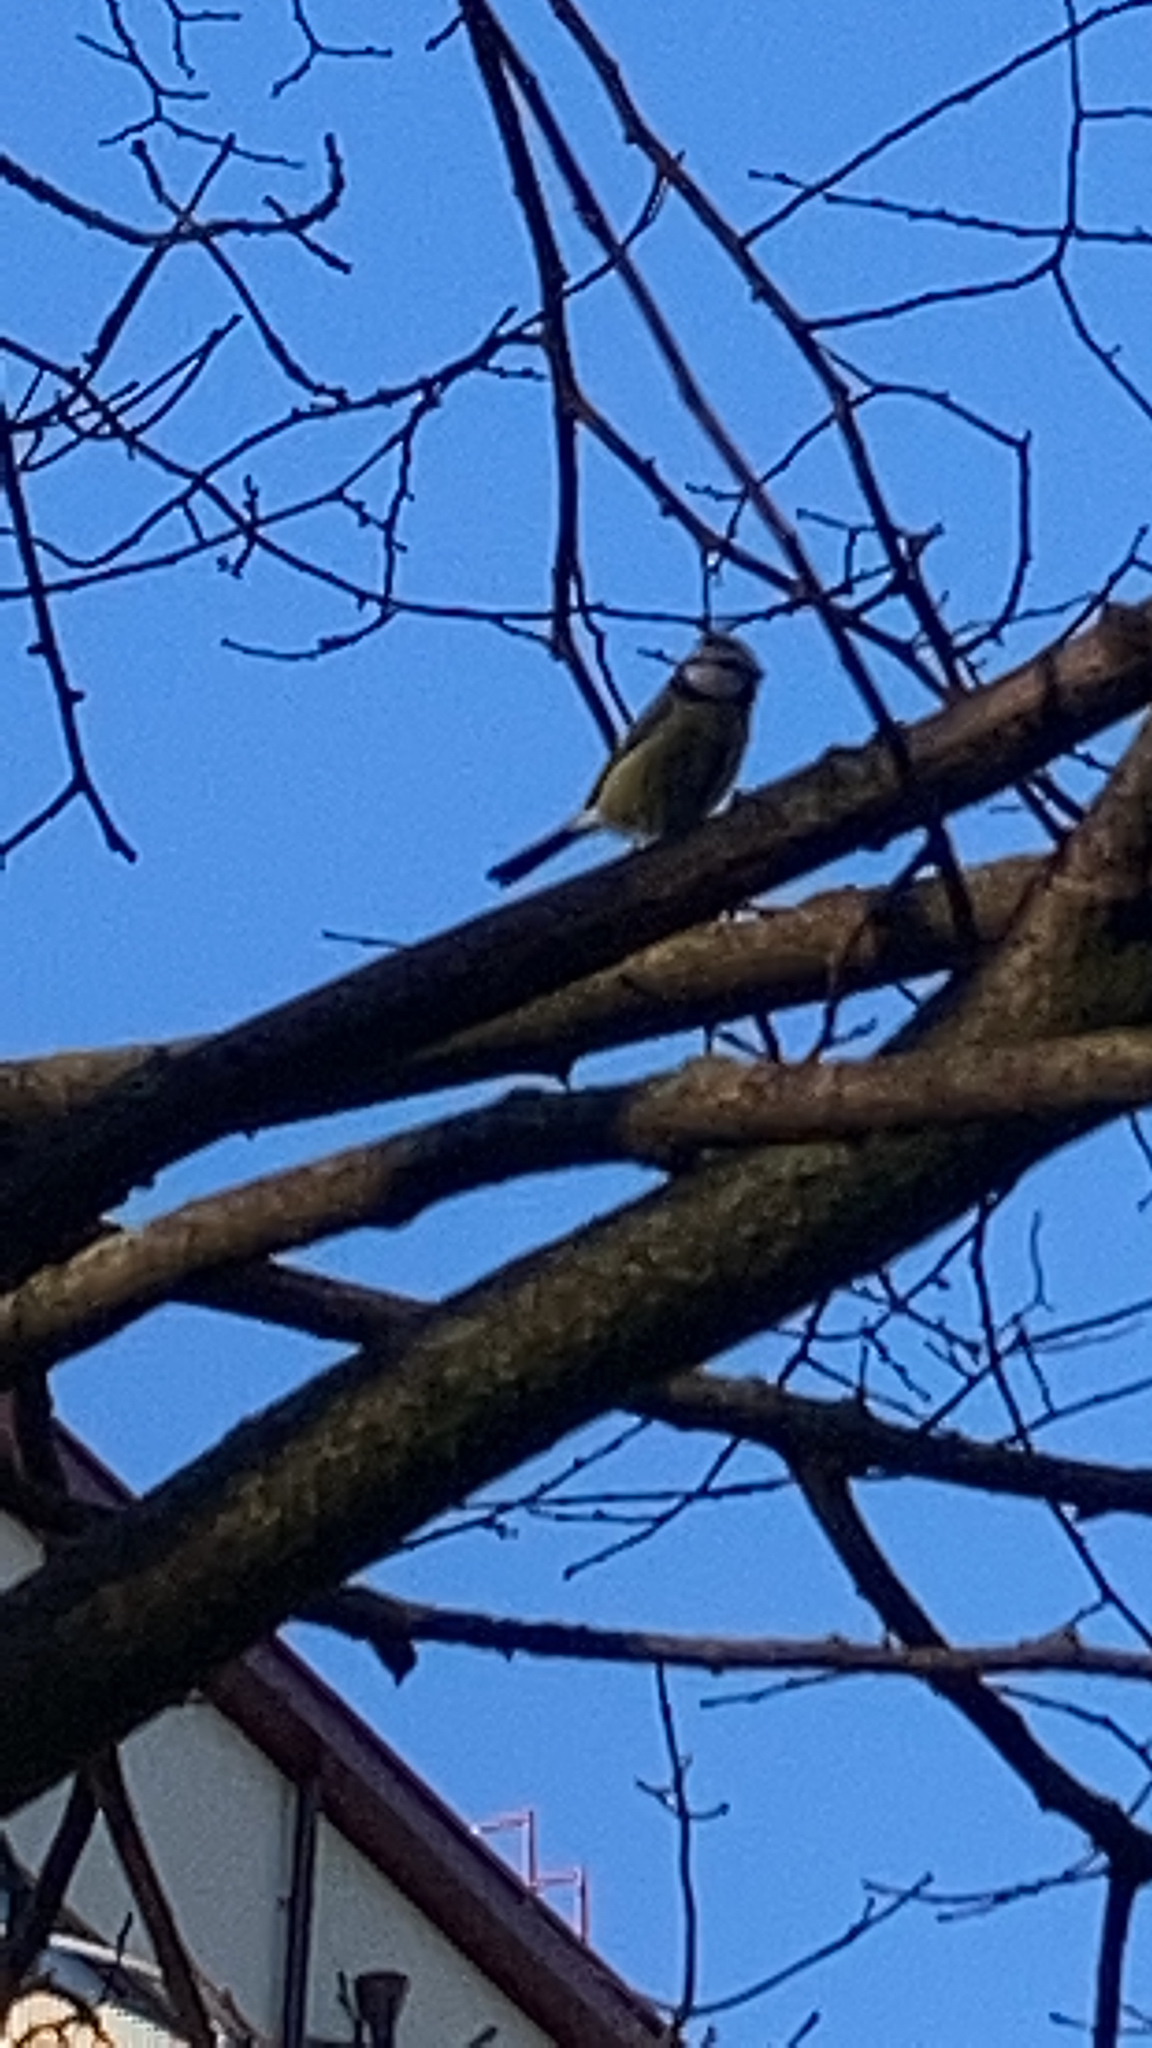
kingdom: Animalia
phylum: Chordata
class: Aves
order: Passeriformes
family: Paridae
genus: Cyanistes
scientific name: Cyanistes caeruleus
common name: Eurasian blue tit
